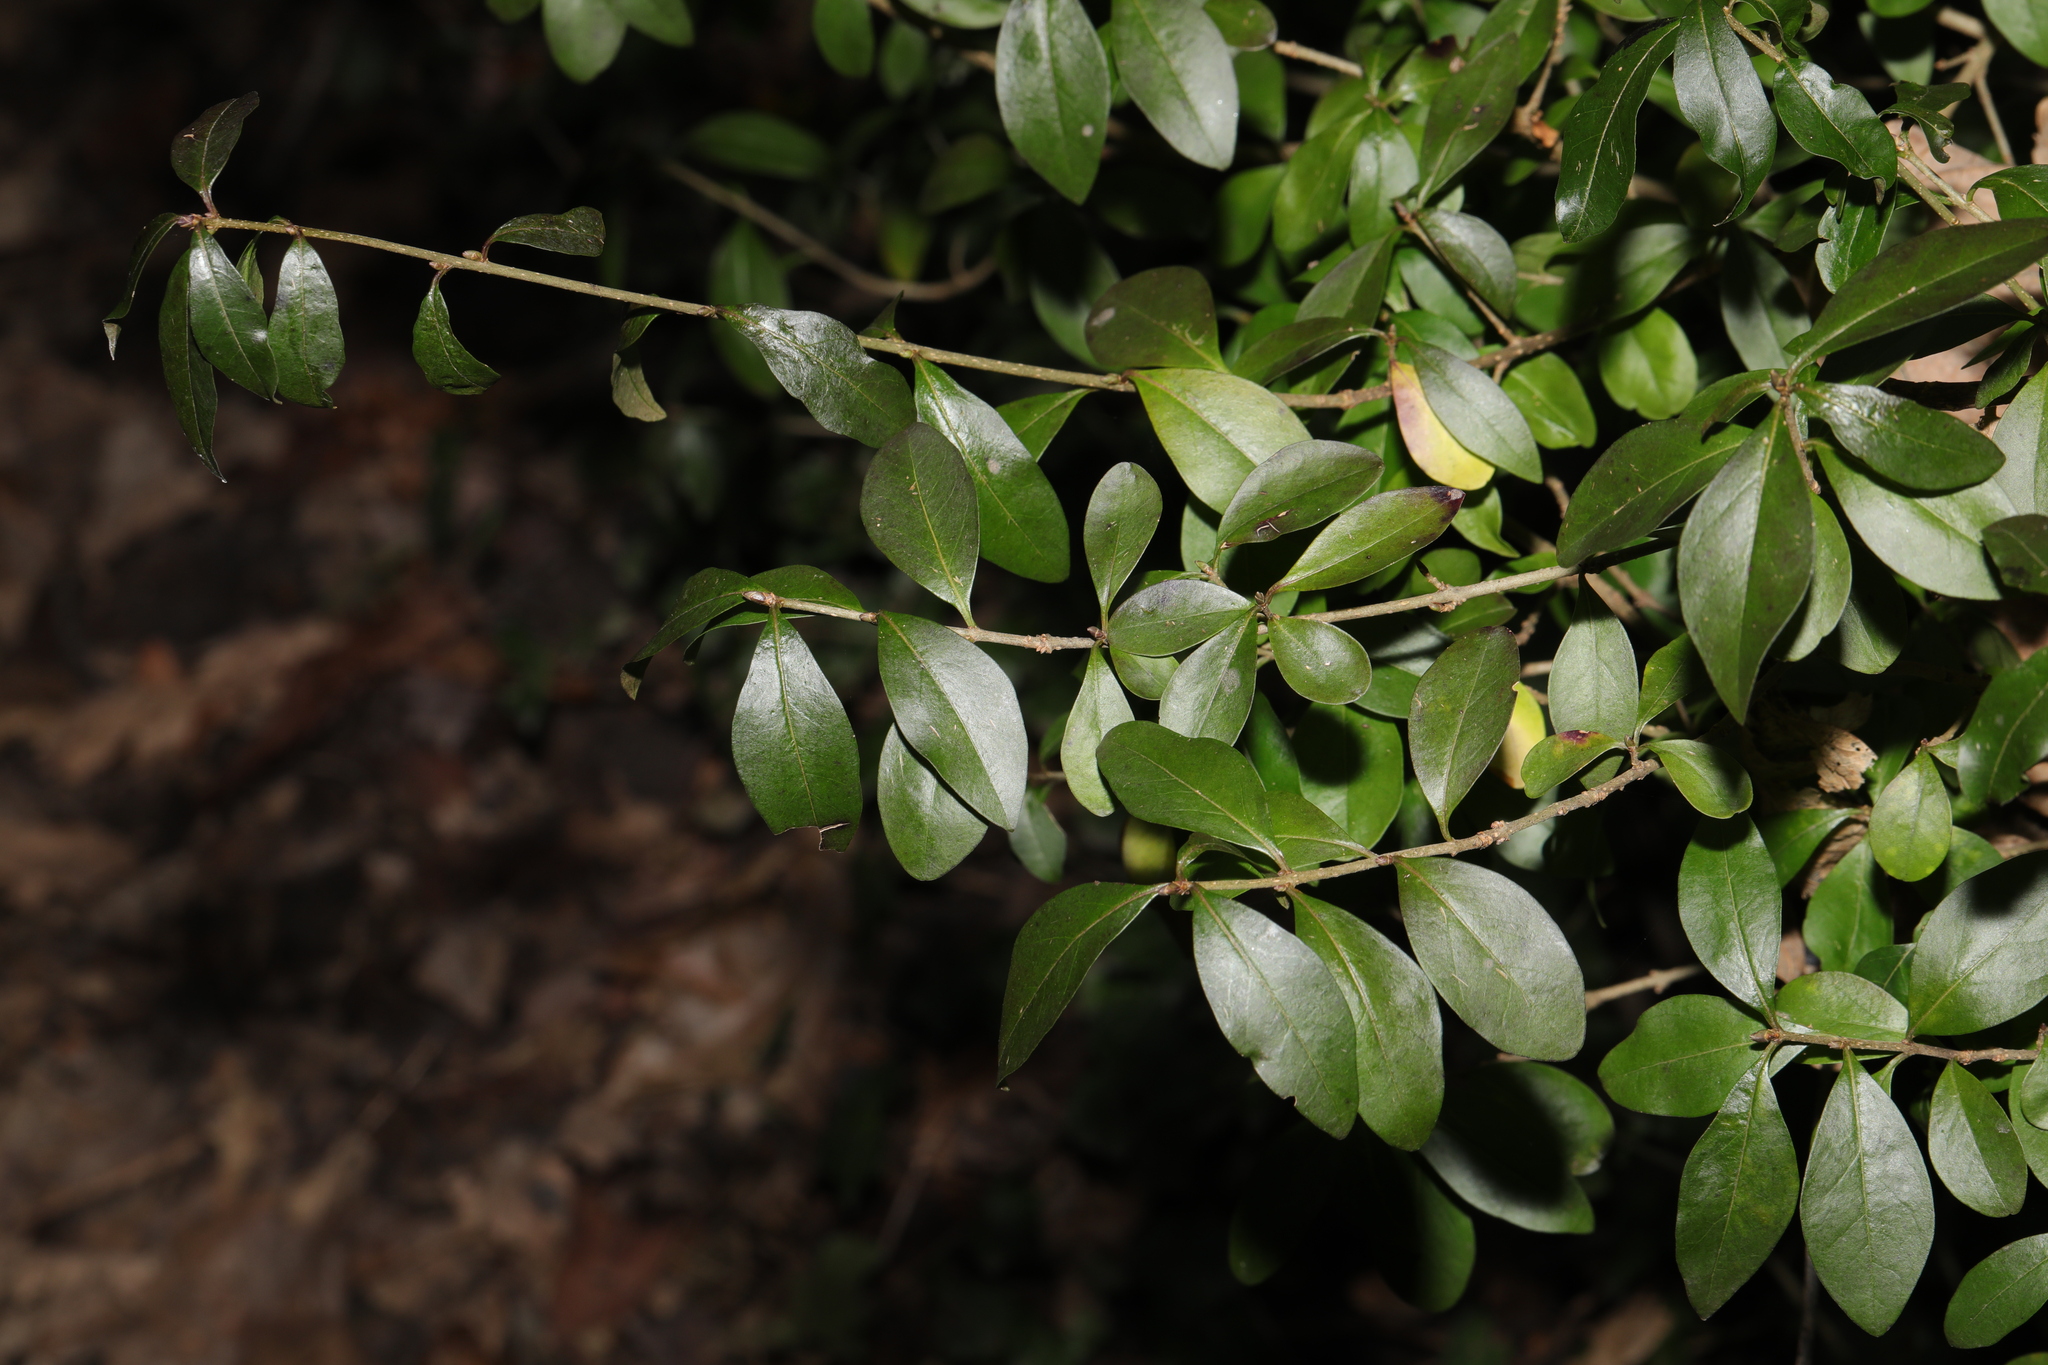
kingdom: Plantae
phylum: Tracheophyta
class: Magnoliopsida
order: Rosales
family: Rosaceae
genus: Pyracantha
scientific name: Pyracantha coccinea
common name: Firethorn
